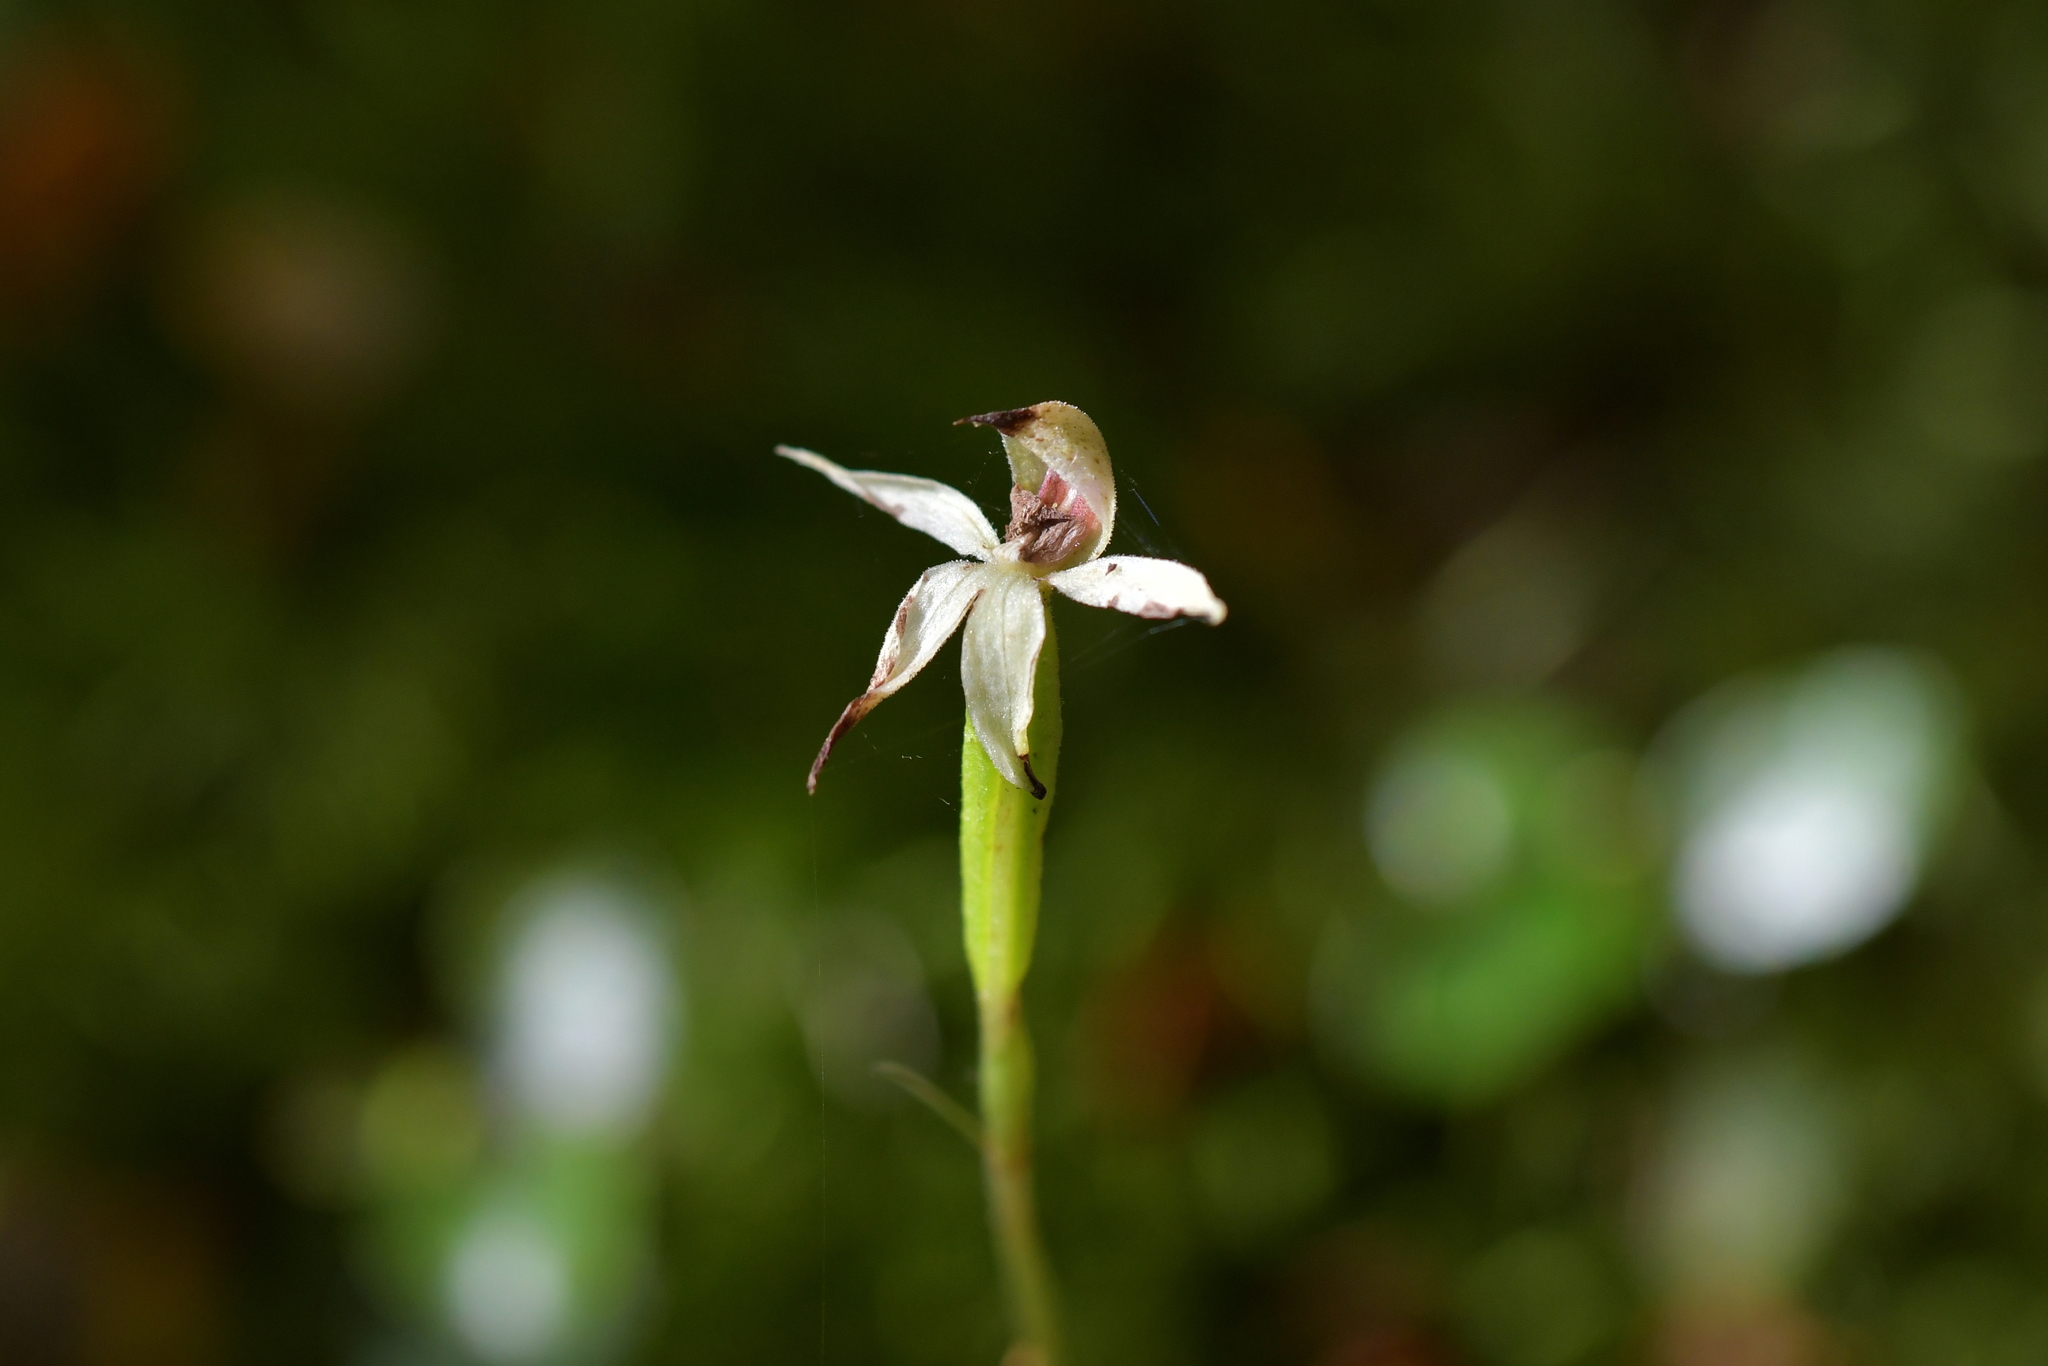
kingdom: Plantae
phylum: Tracheophyta
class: Liliopsida
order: Asparagales
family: Orchidaceae
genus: Adenochilus
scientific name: Adenochilus gracilis
